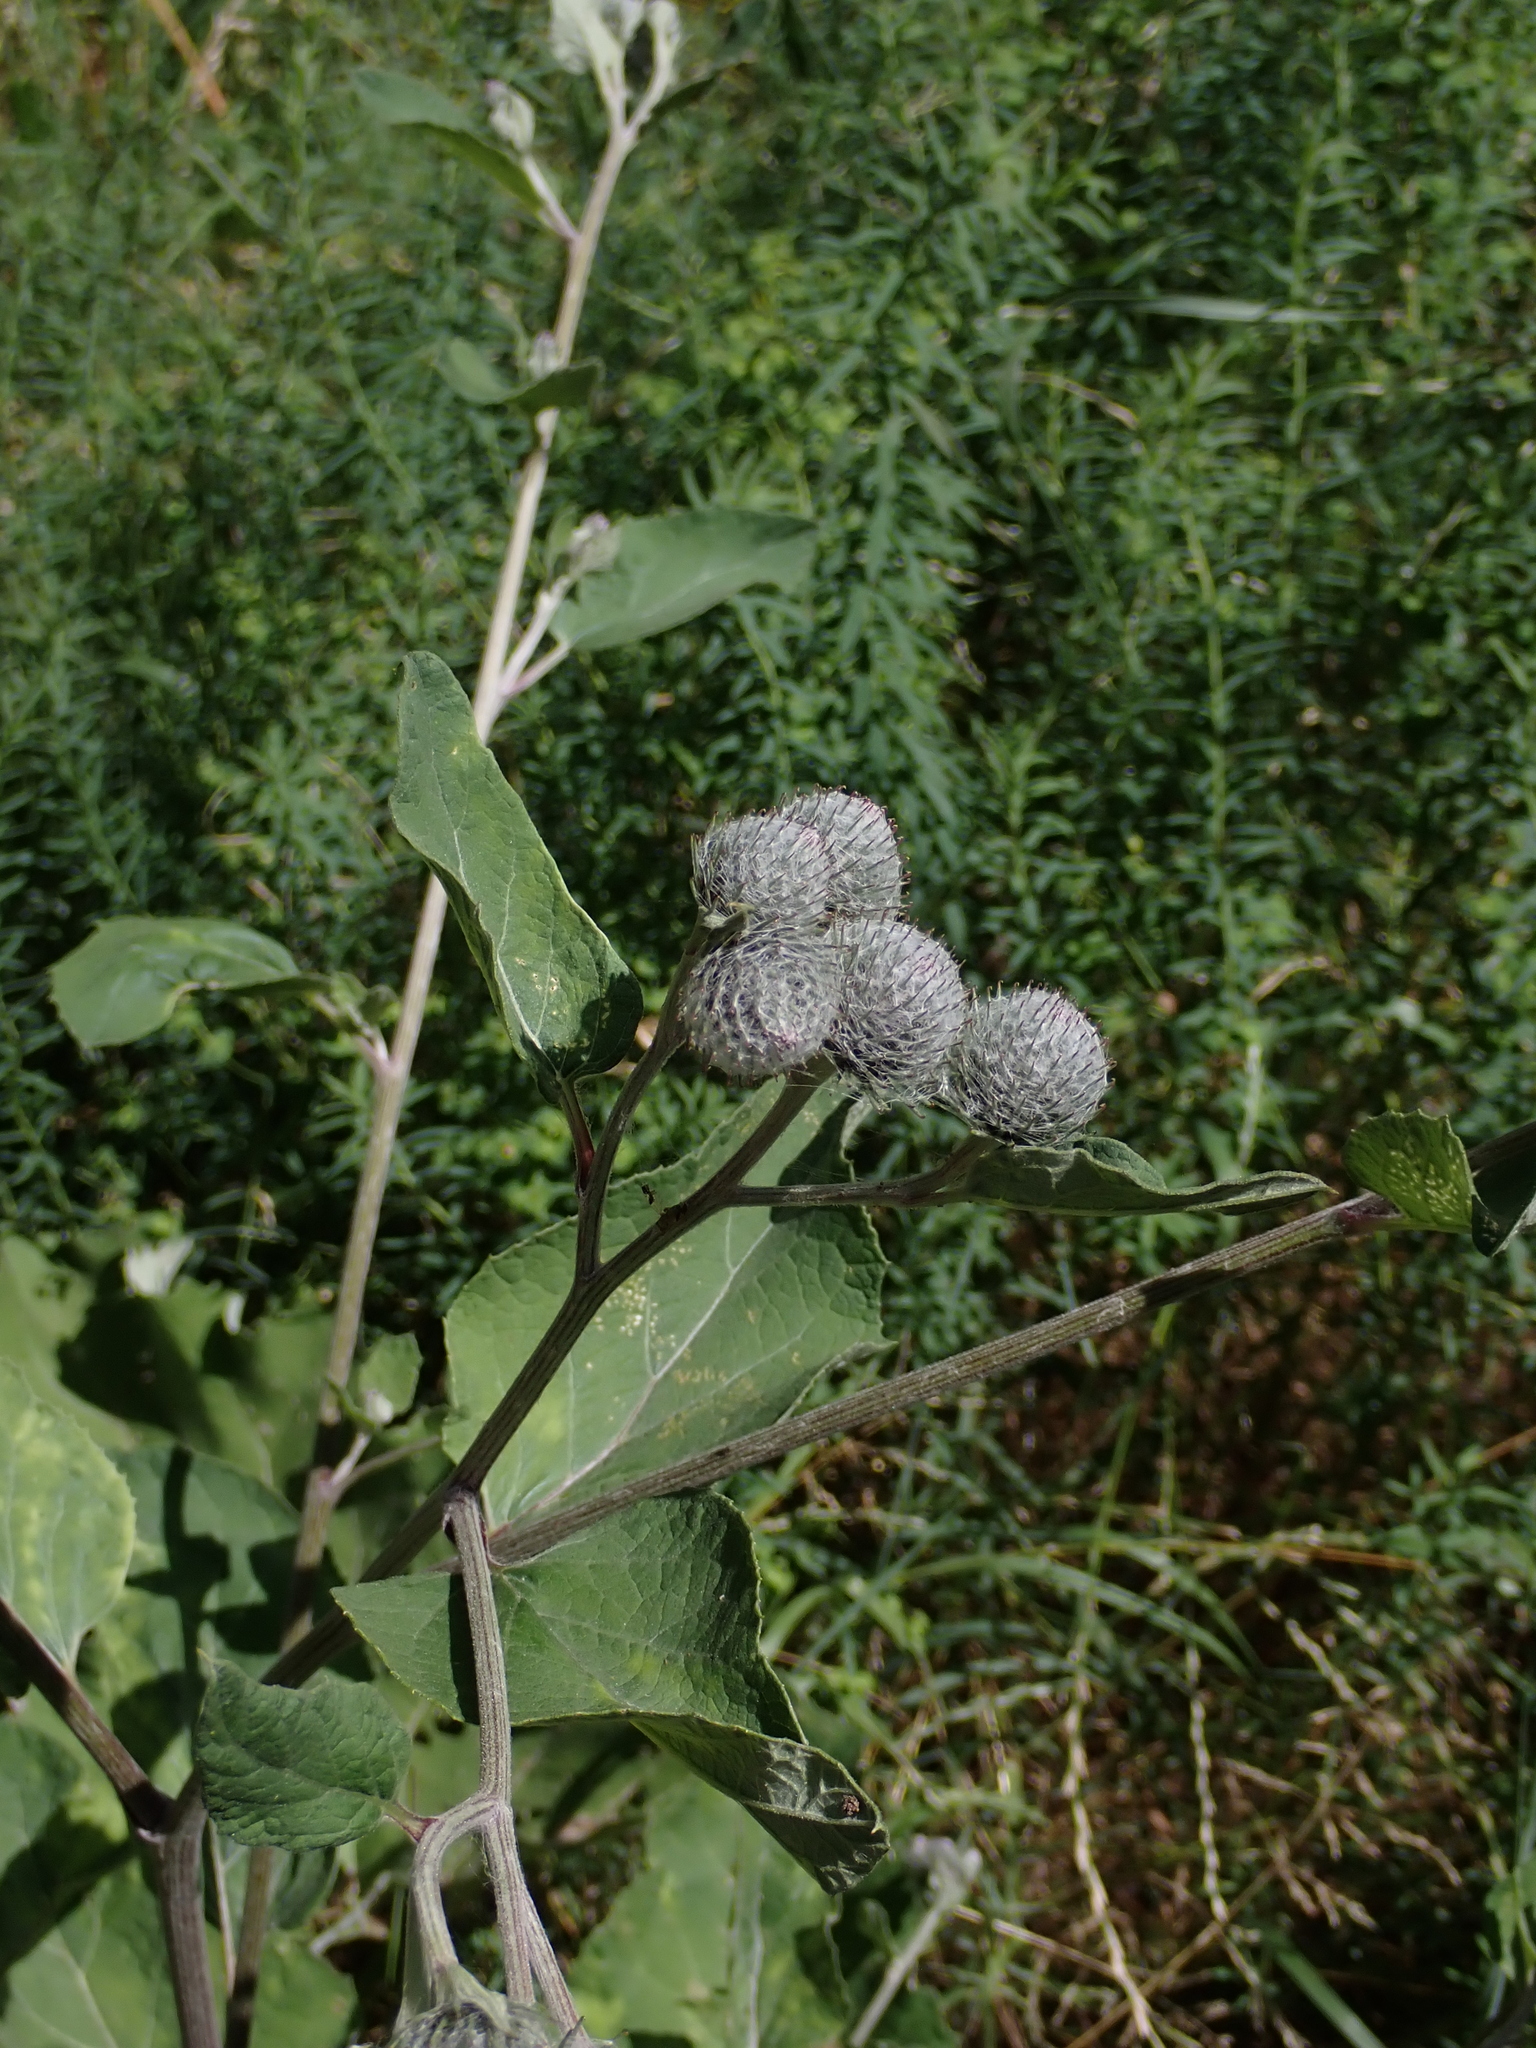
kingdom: Plantae
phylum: Tracheophyta
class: Magnoliopsida
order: Asterales
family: Asteraceae
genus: Arctium
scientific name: Arctium tomentosum
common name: Woolly burdock
